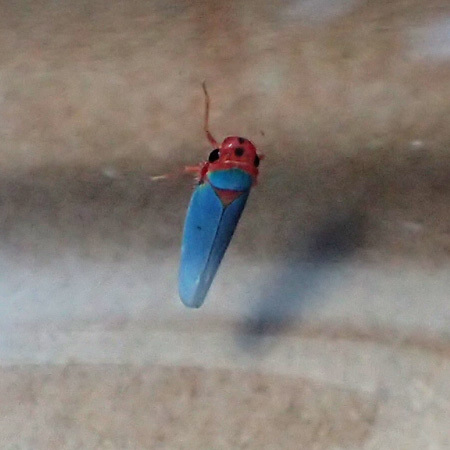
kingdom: Animalia
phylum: Arthropoda
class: Insecta
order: Hemiptera
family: Cicadellidae
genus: Macunolla
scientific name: Macunolla ventralis
